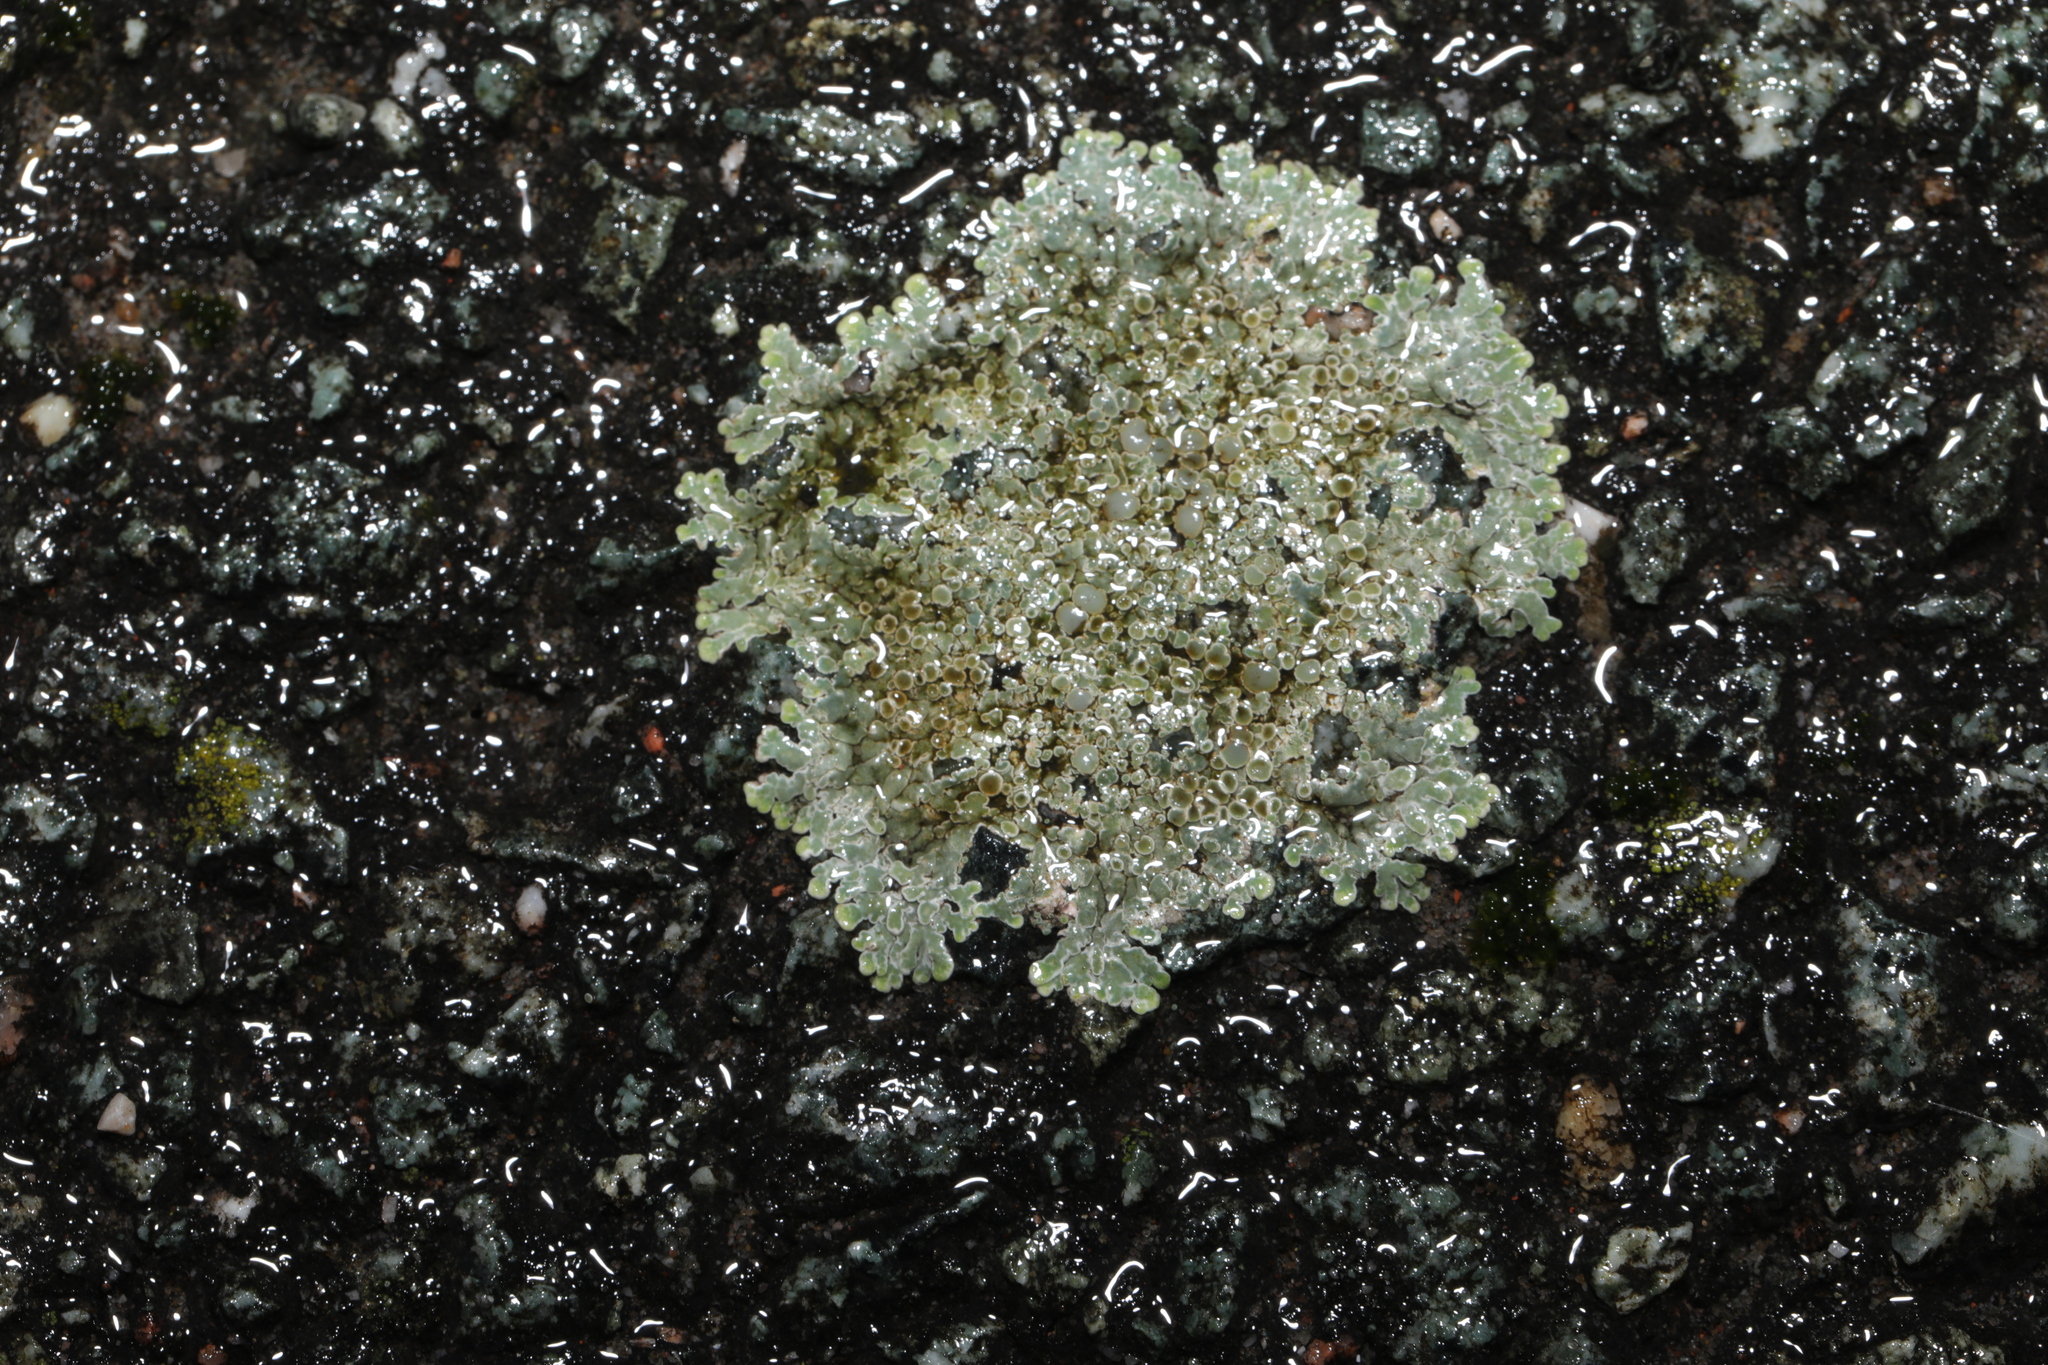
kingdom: Fungi
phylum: Ascomycota
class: Lecanoromycetes
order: Lecanorales
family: Lecanoraceae
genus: Protoparmeliopsis
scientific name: Protoparmeliopsis muralis
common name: Stonewall rim lichen
